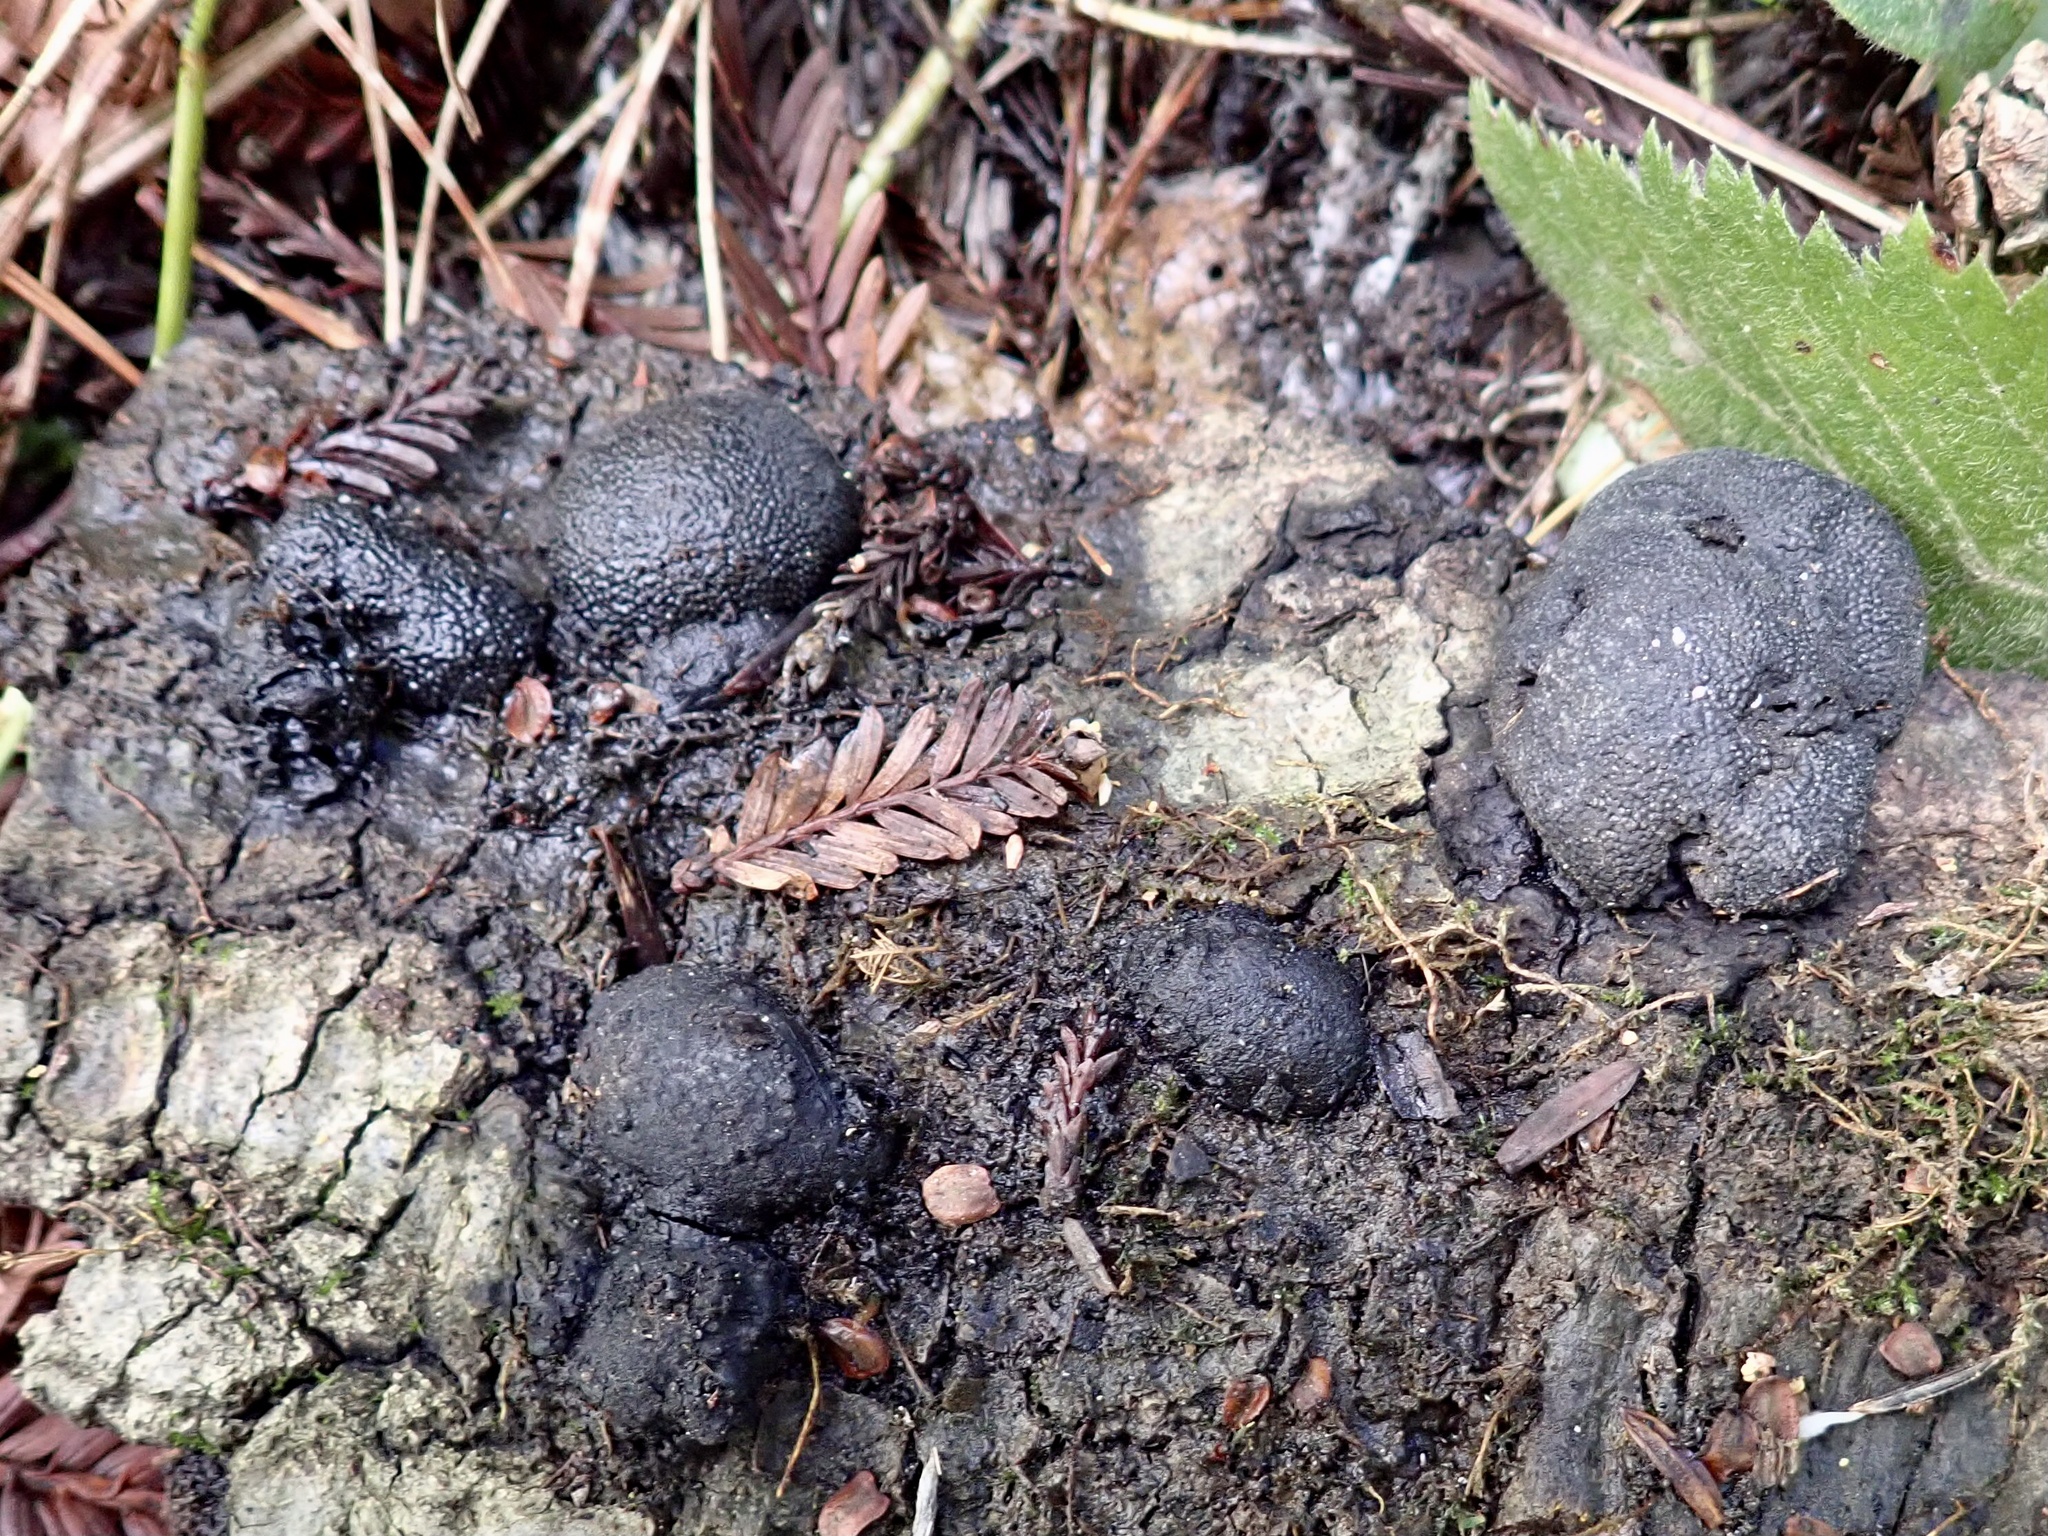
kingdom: Fungi
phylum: Ascomycota
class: Sordariomycetes
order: Xylariales
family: Hypoxylaceae
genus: Annulohypoxylon
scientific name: Annulohypoxylon thouarsianum
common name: Cramp balls
